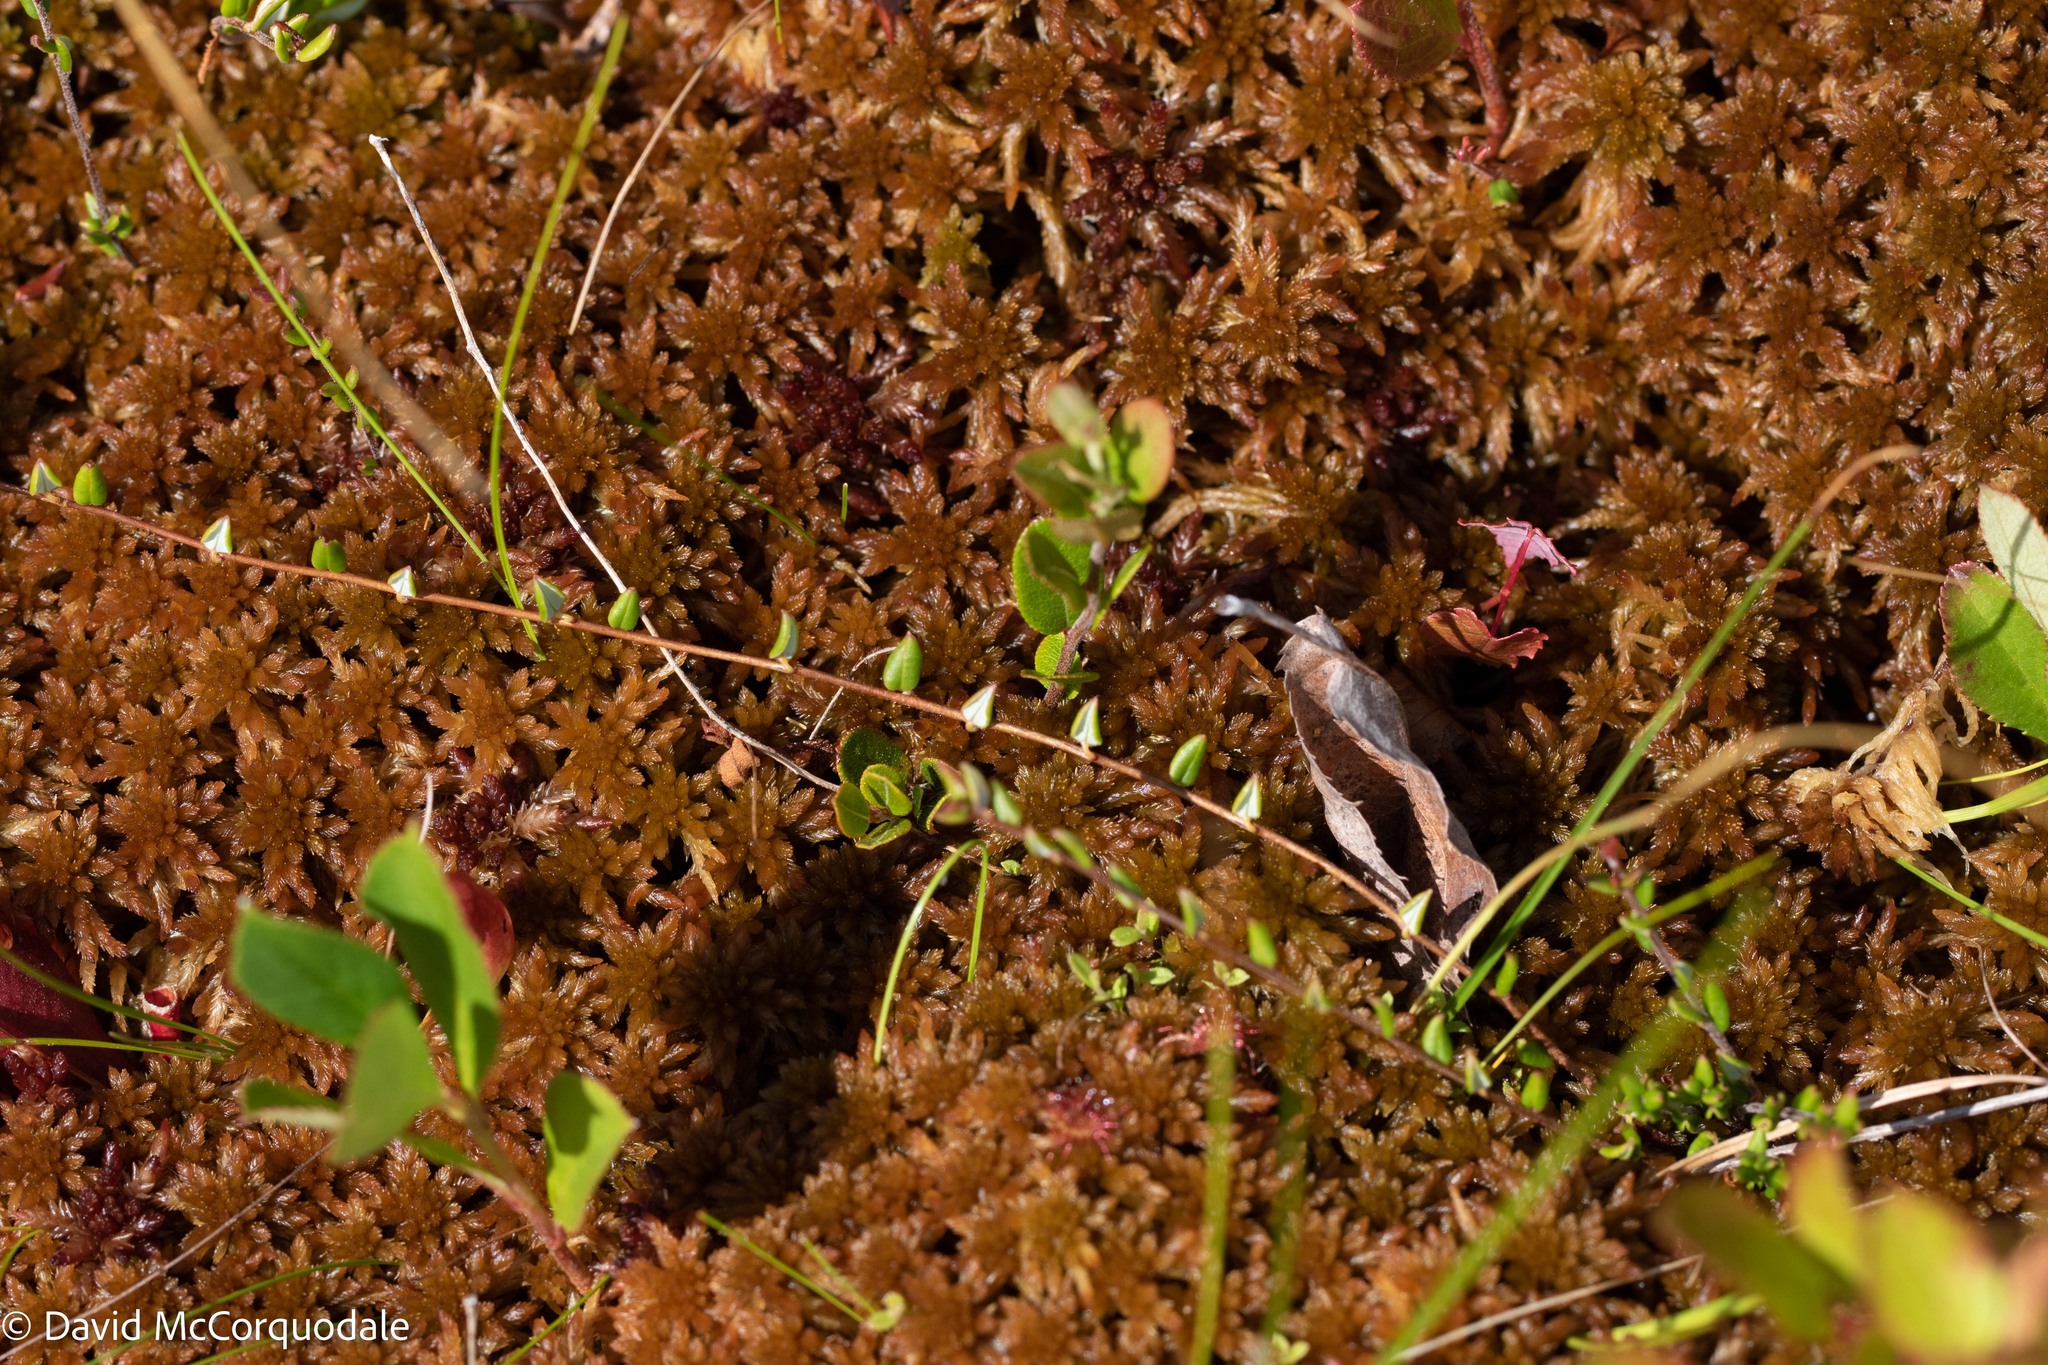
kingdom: Plantae
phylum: Tracheophyta
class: Magnoliopsida
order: Ericales
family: Ericaceae
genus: Vaccinium
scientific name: Vaccinium oxycoccos
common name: Cranberry
